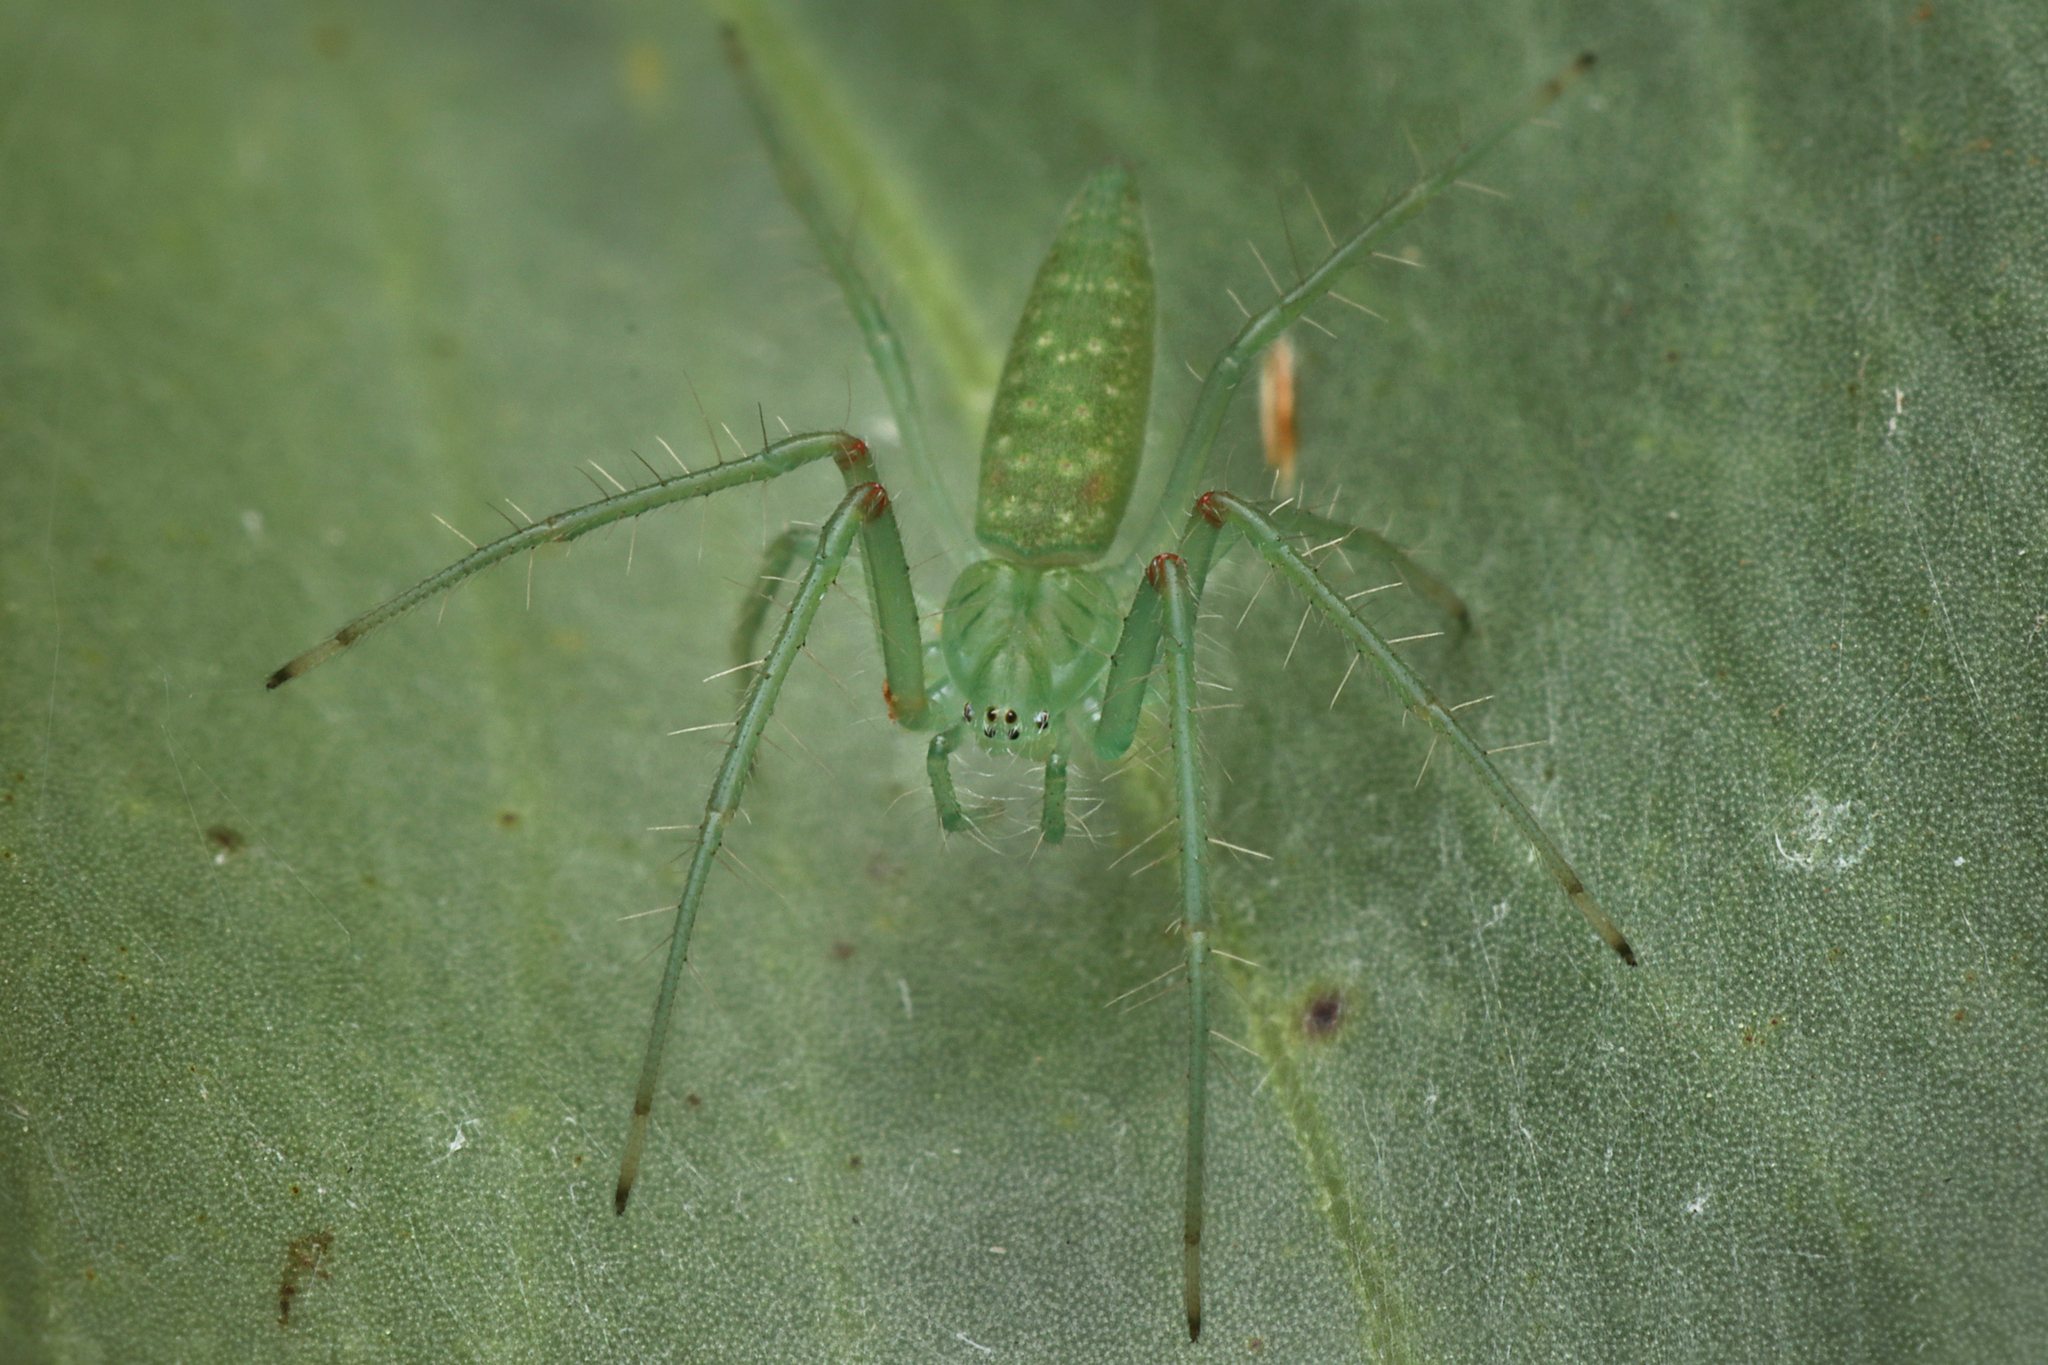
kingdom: Animalia
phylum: Arthropoda
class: Arachnida
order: Araneae
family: Araneidae
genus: Araneus
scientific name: Araneus talipedatus
